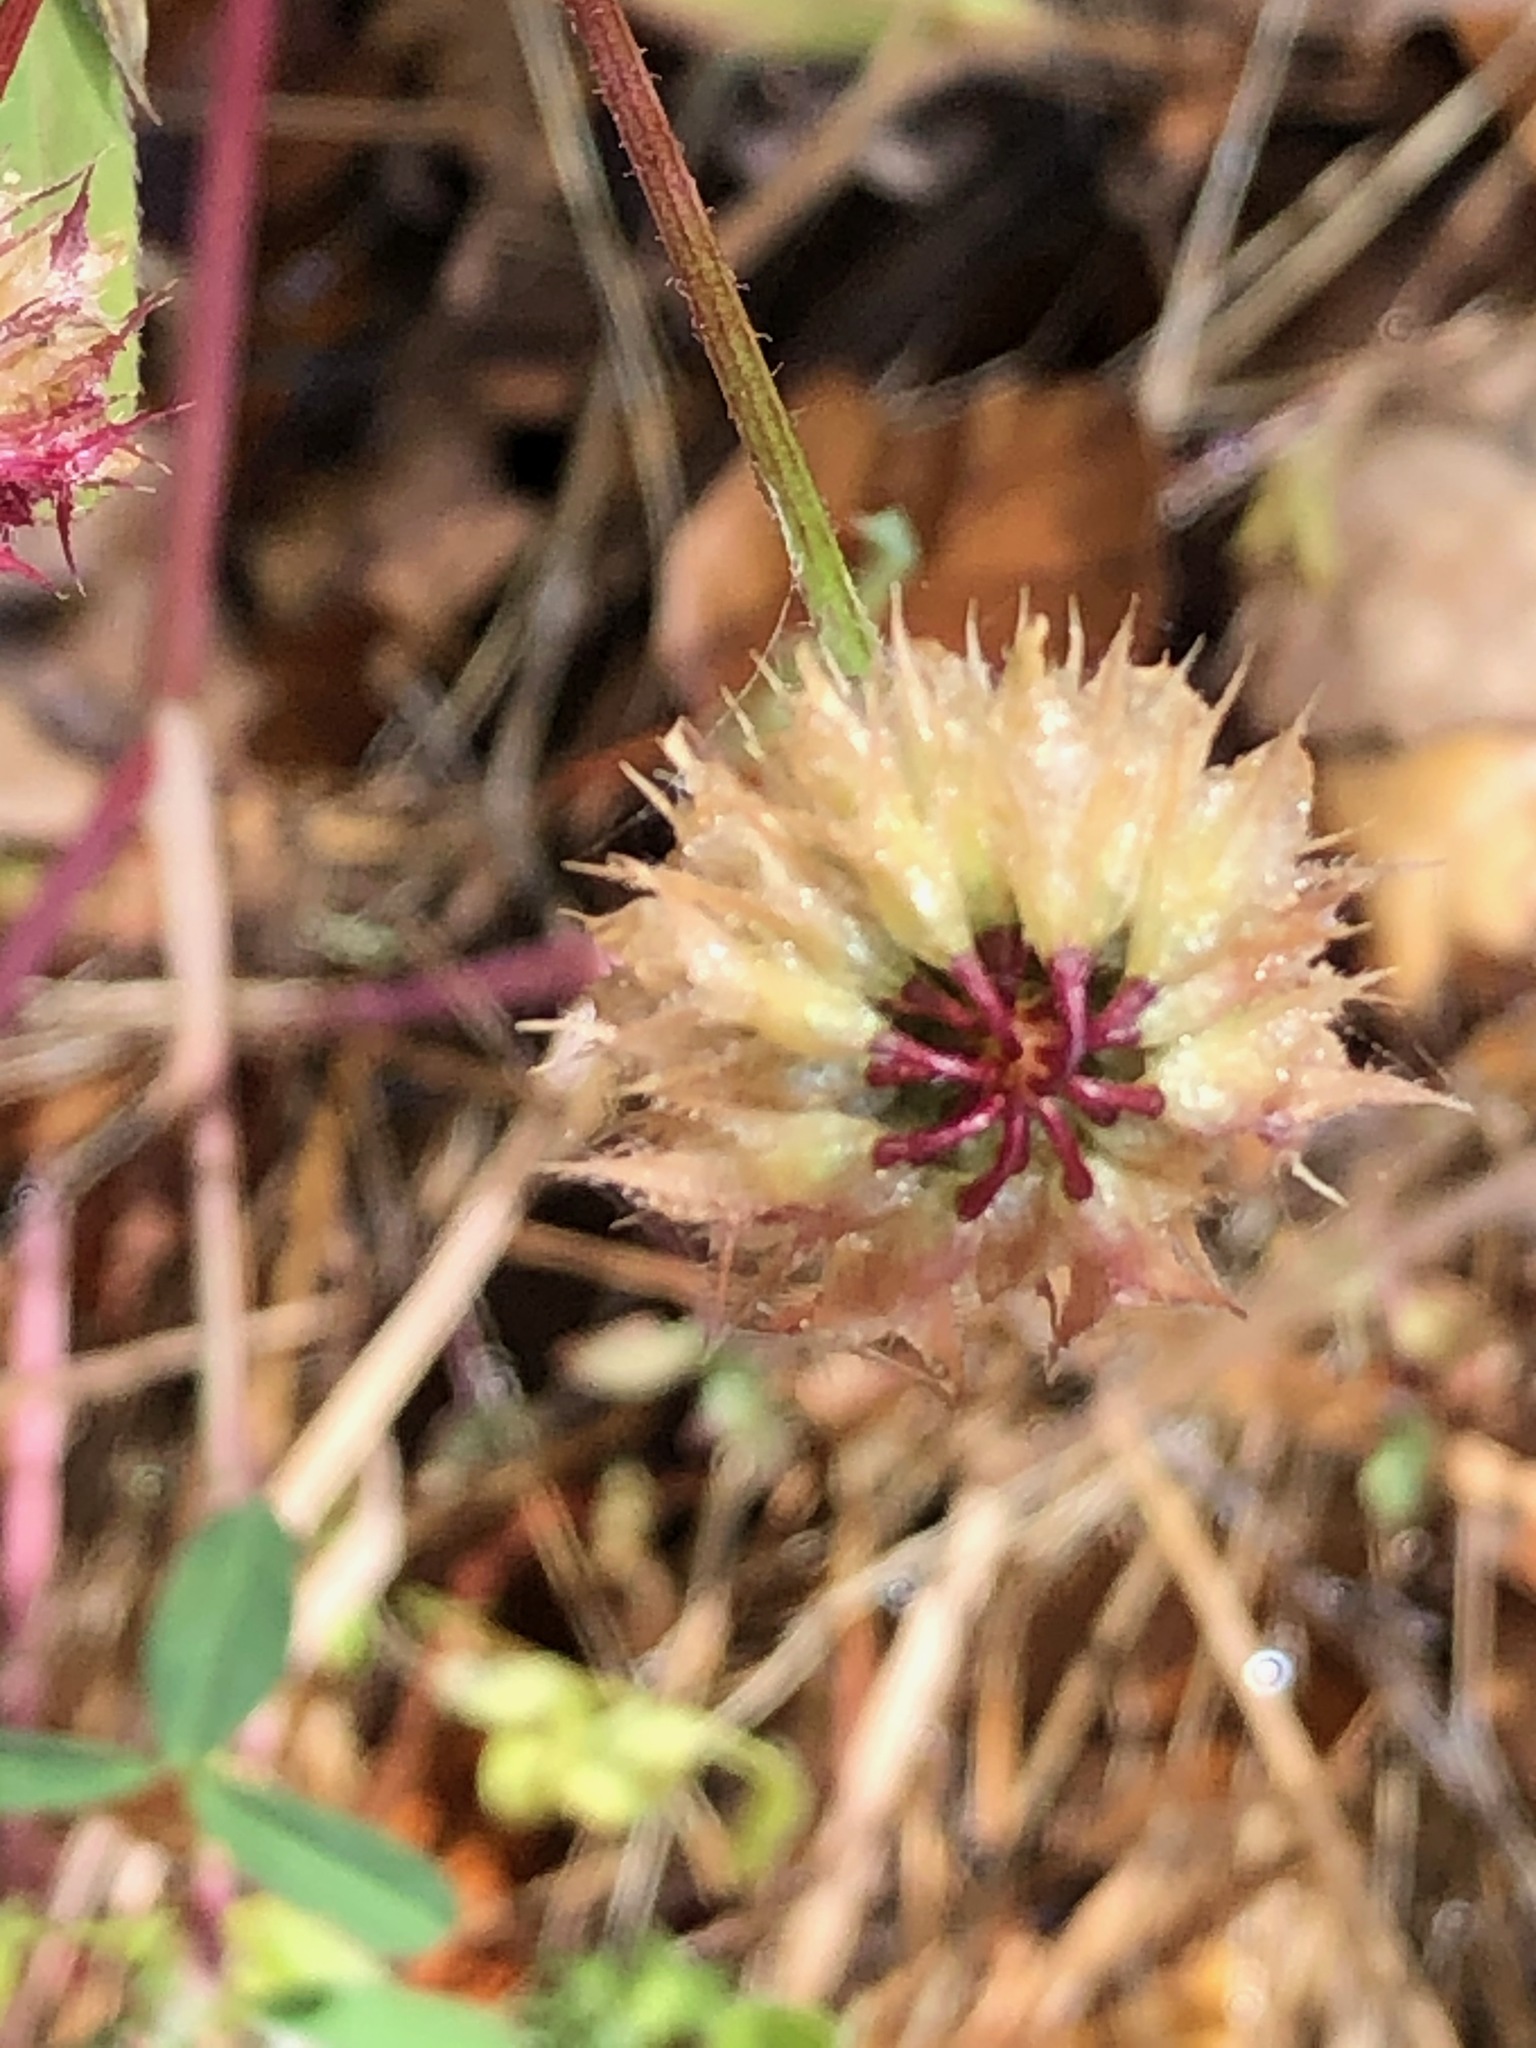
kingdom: Plantae
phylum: Tracheophyta
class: Magnoliopsida
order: Fabales
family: Fabaceae
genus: Trifolium
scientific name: Trifolium ciliolatum
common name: Foothill clover
